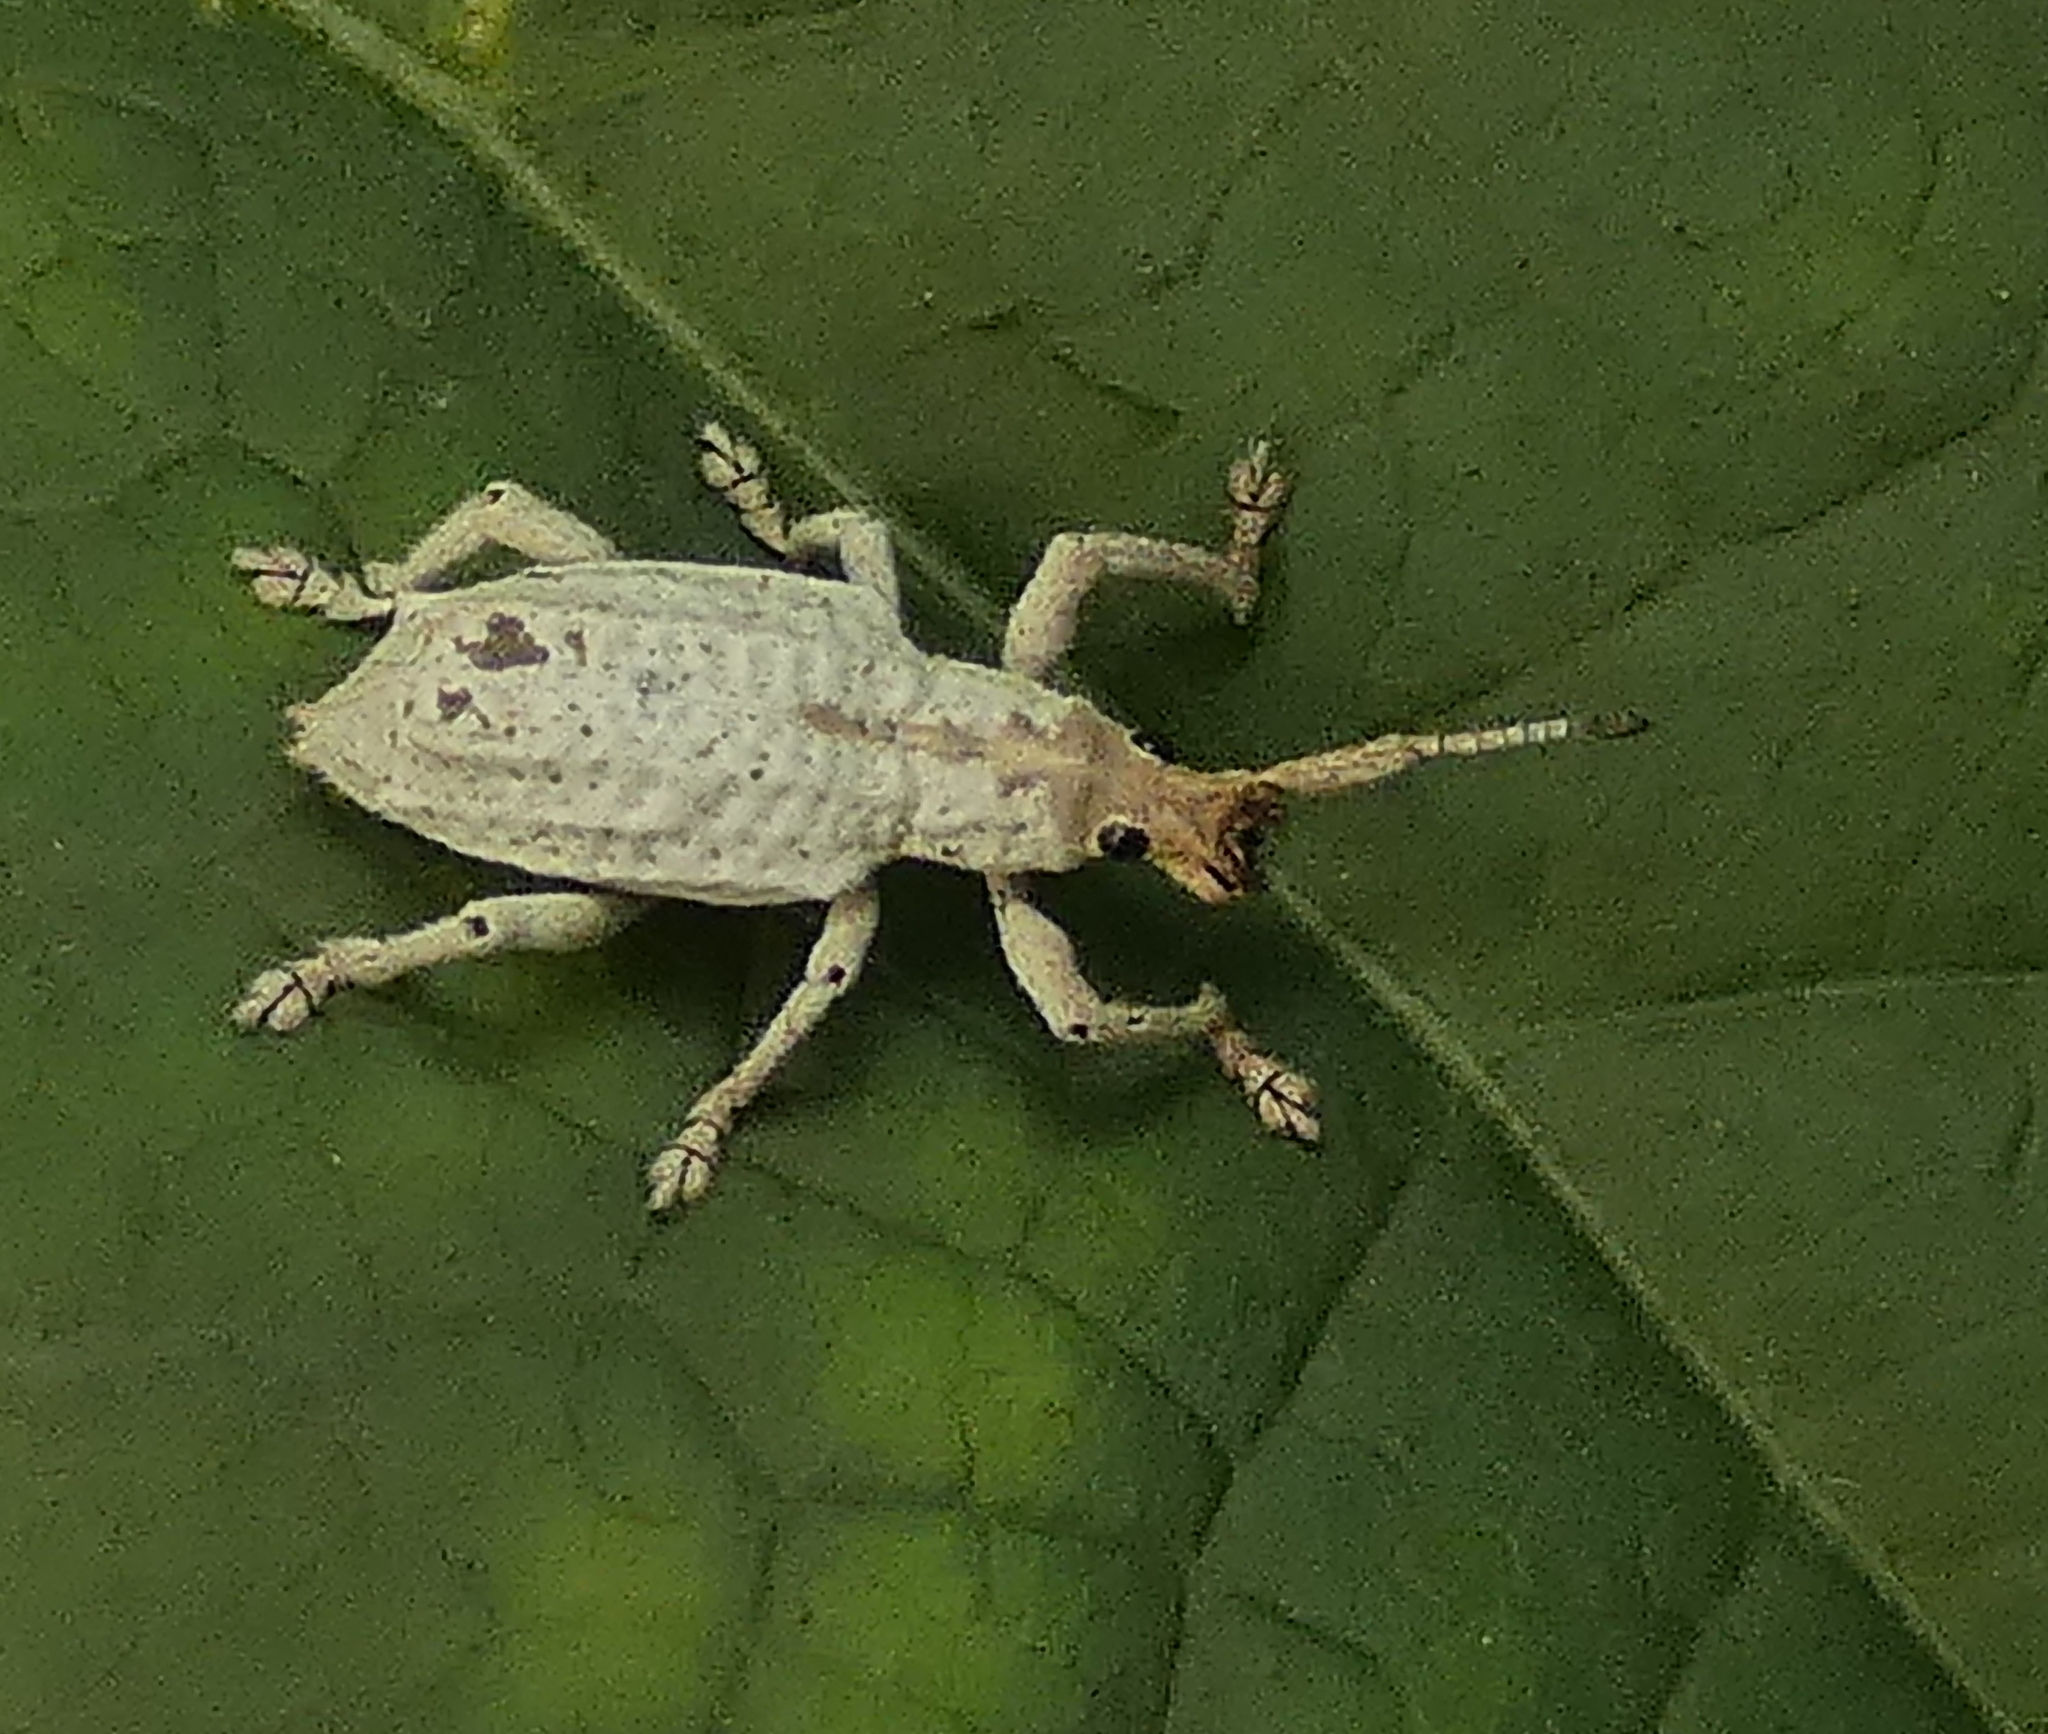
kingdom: Animalia
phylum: Arthropoda
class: Insecta
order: Coleoptera
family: Curculionidae
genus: Compsus
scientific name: Compsus niveus
